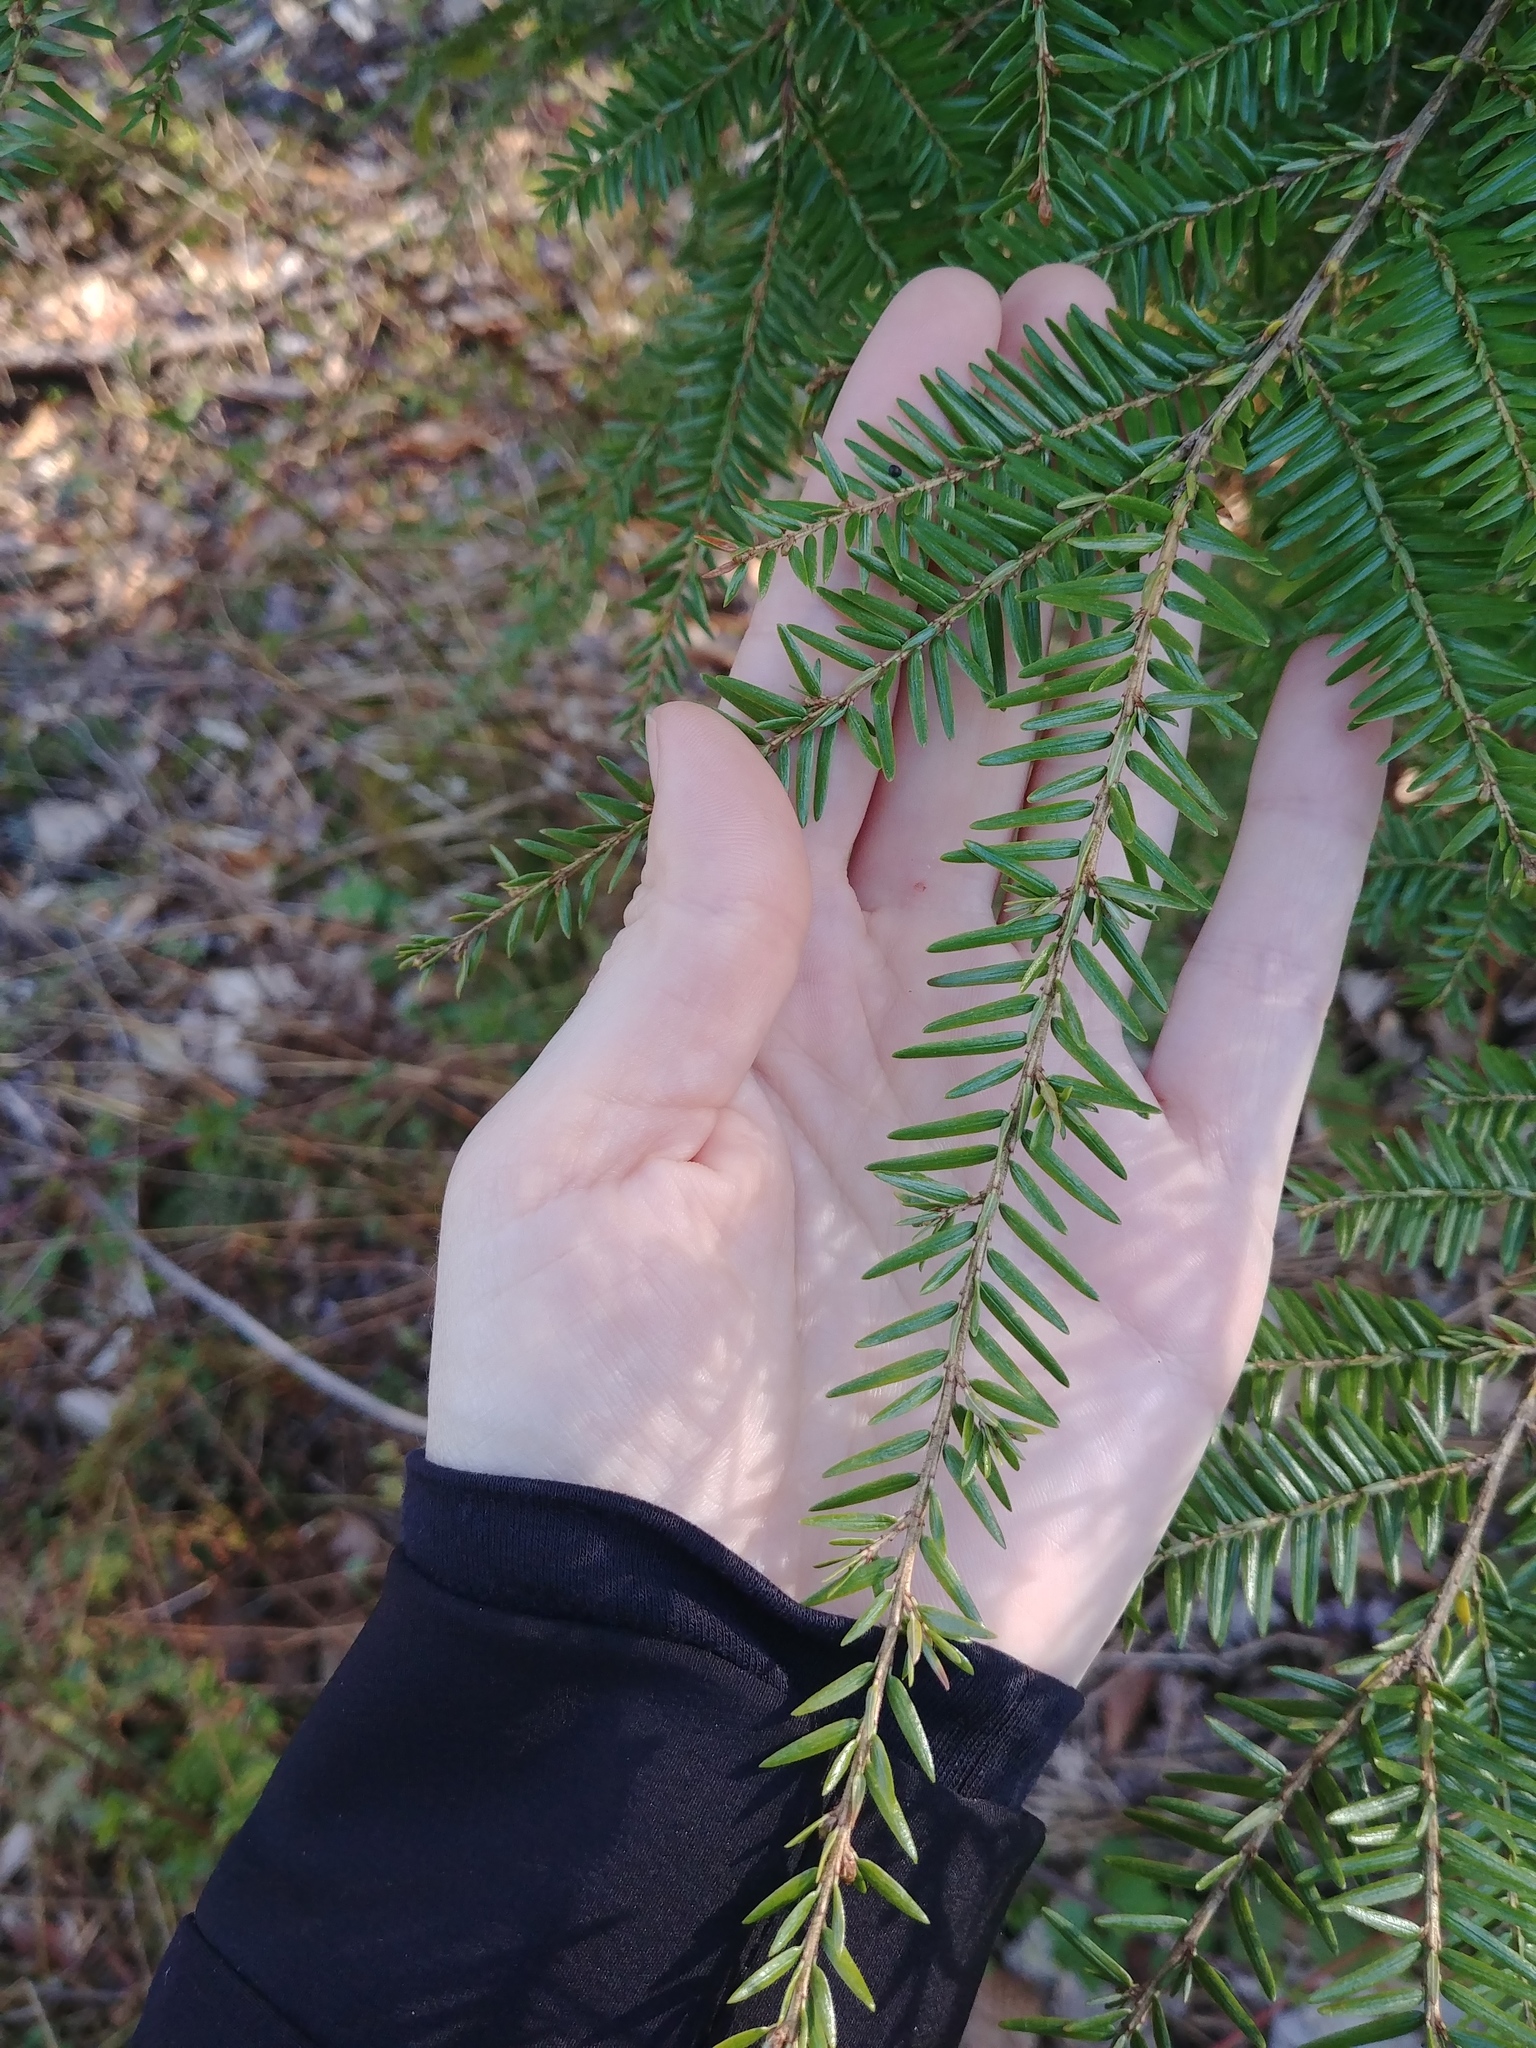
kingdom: Plantae
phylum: Tracheophyta
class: Pinopsida
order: Pinales
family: Pinaceae
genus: Tsuga
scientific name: Tsuga canadensis
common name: Eastern hemlock
